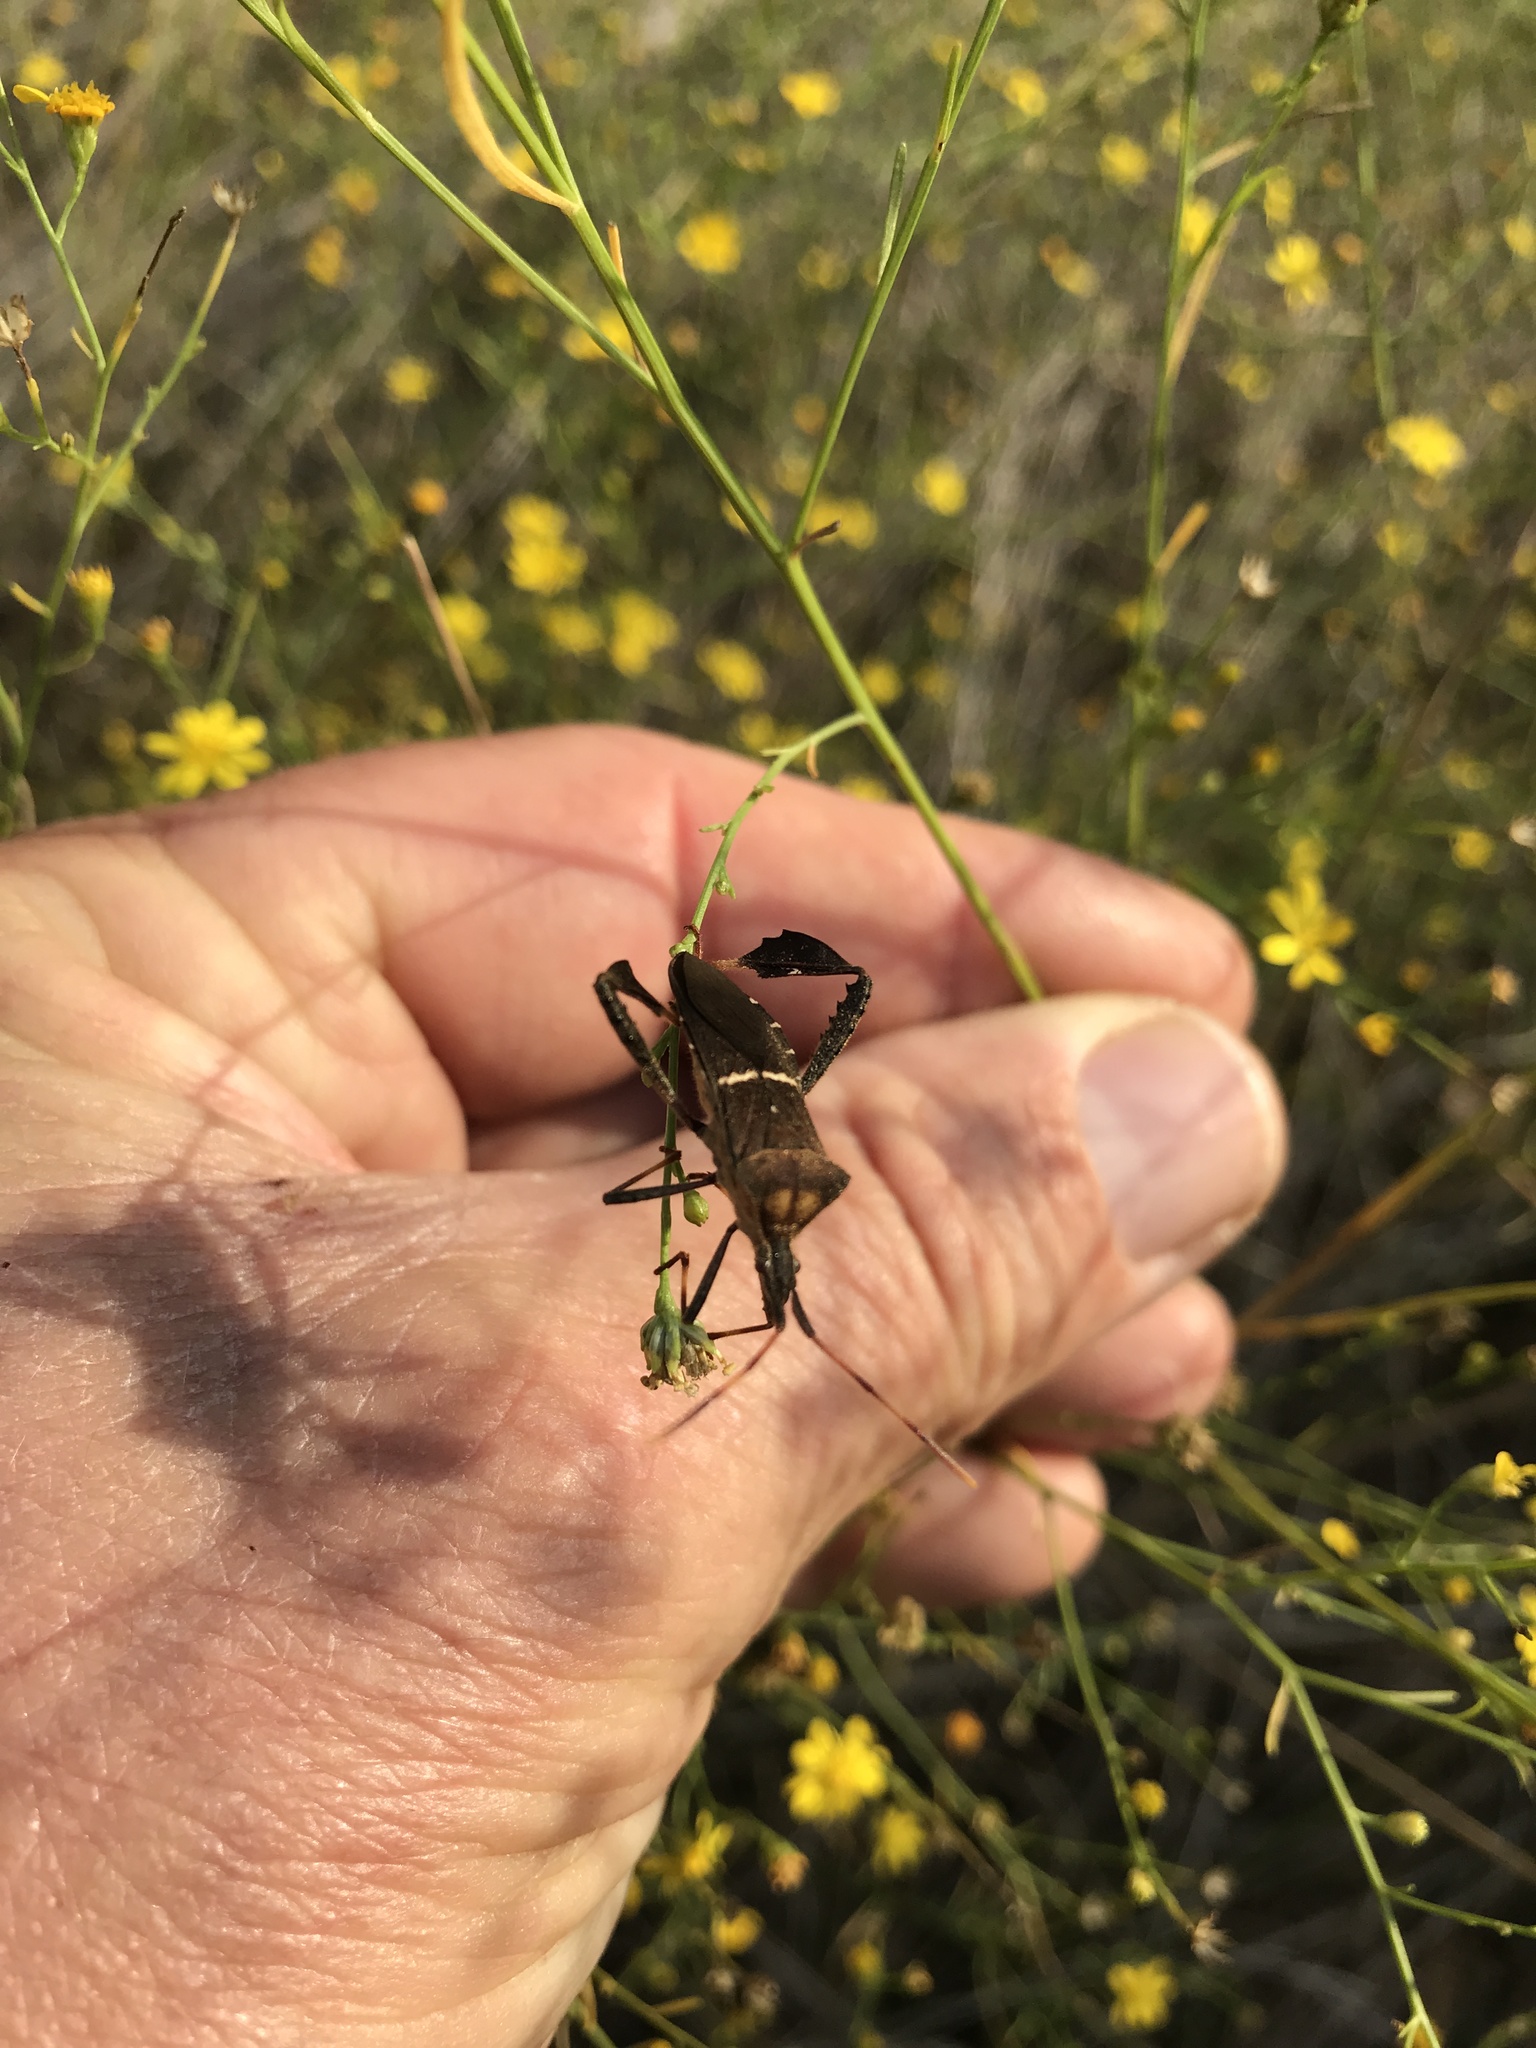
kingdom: Animalia
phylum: Arthropoda
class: Insecta
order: Hemiptera
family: Coreidae
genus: Leptoglossus
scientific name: Leptoglossus phyllopus
